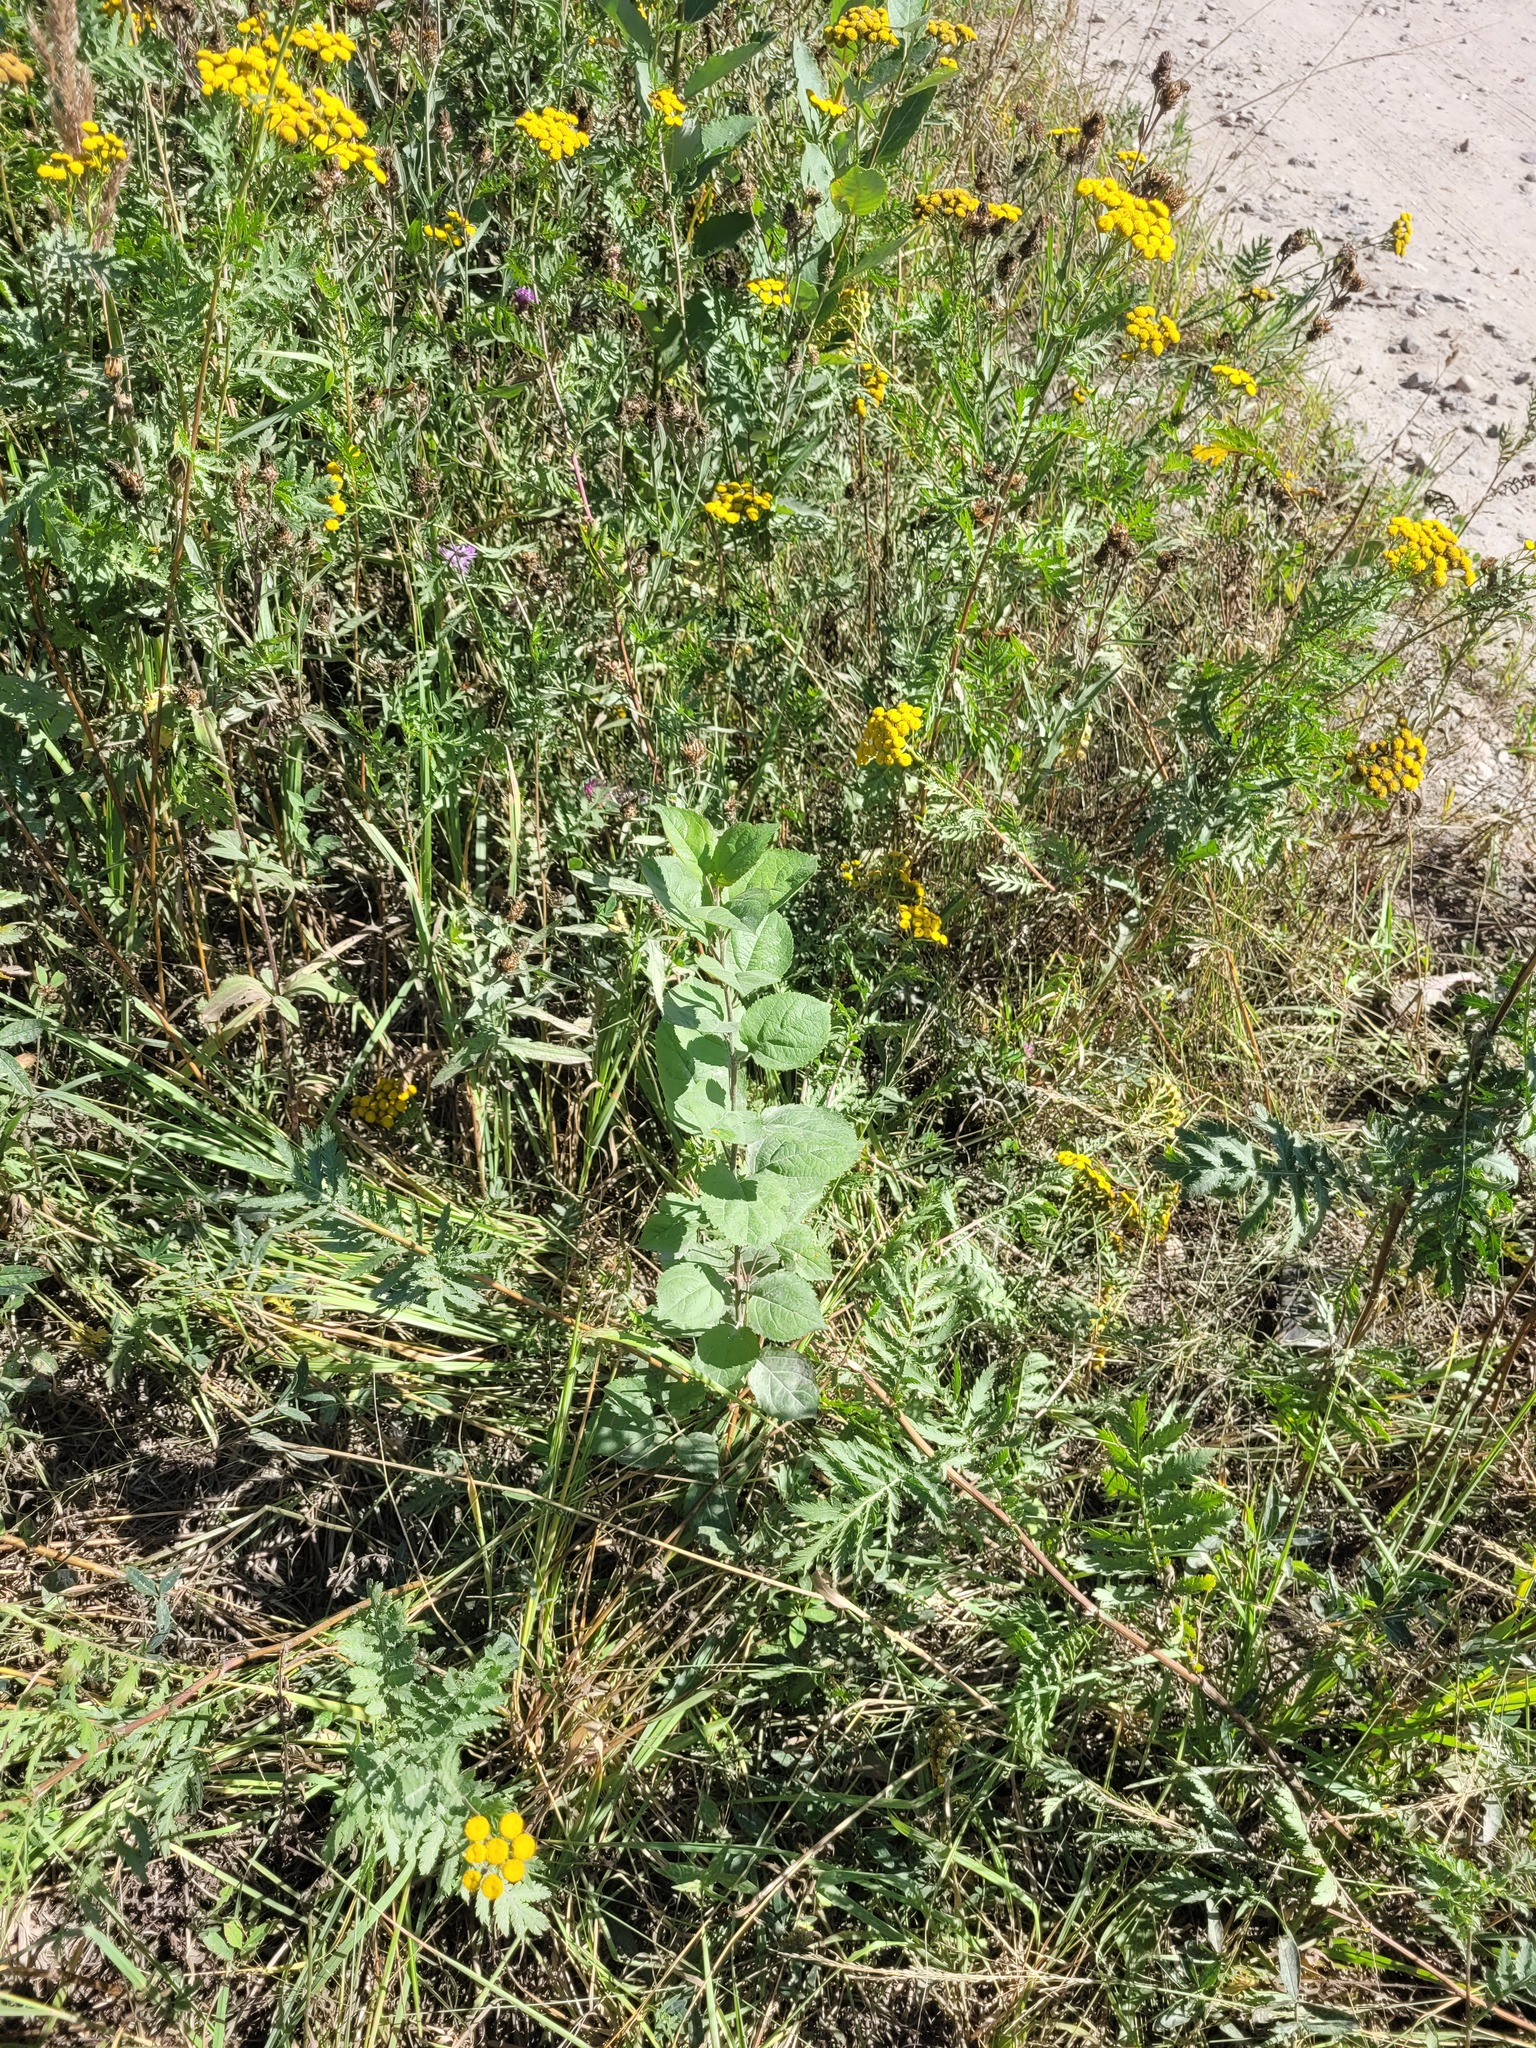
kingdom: Plantae
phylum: Tracheophyta
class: Magnoliopsida
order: Rosales
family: Rosaceae
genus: Malus
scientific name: Malus domestica
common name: Apple
